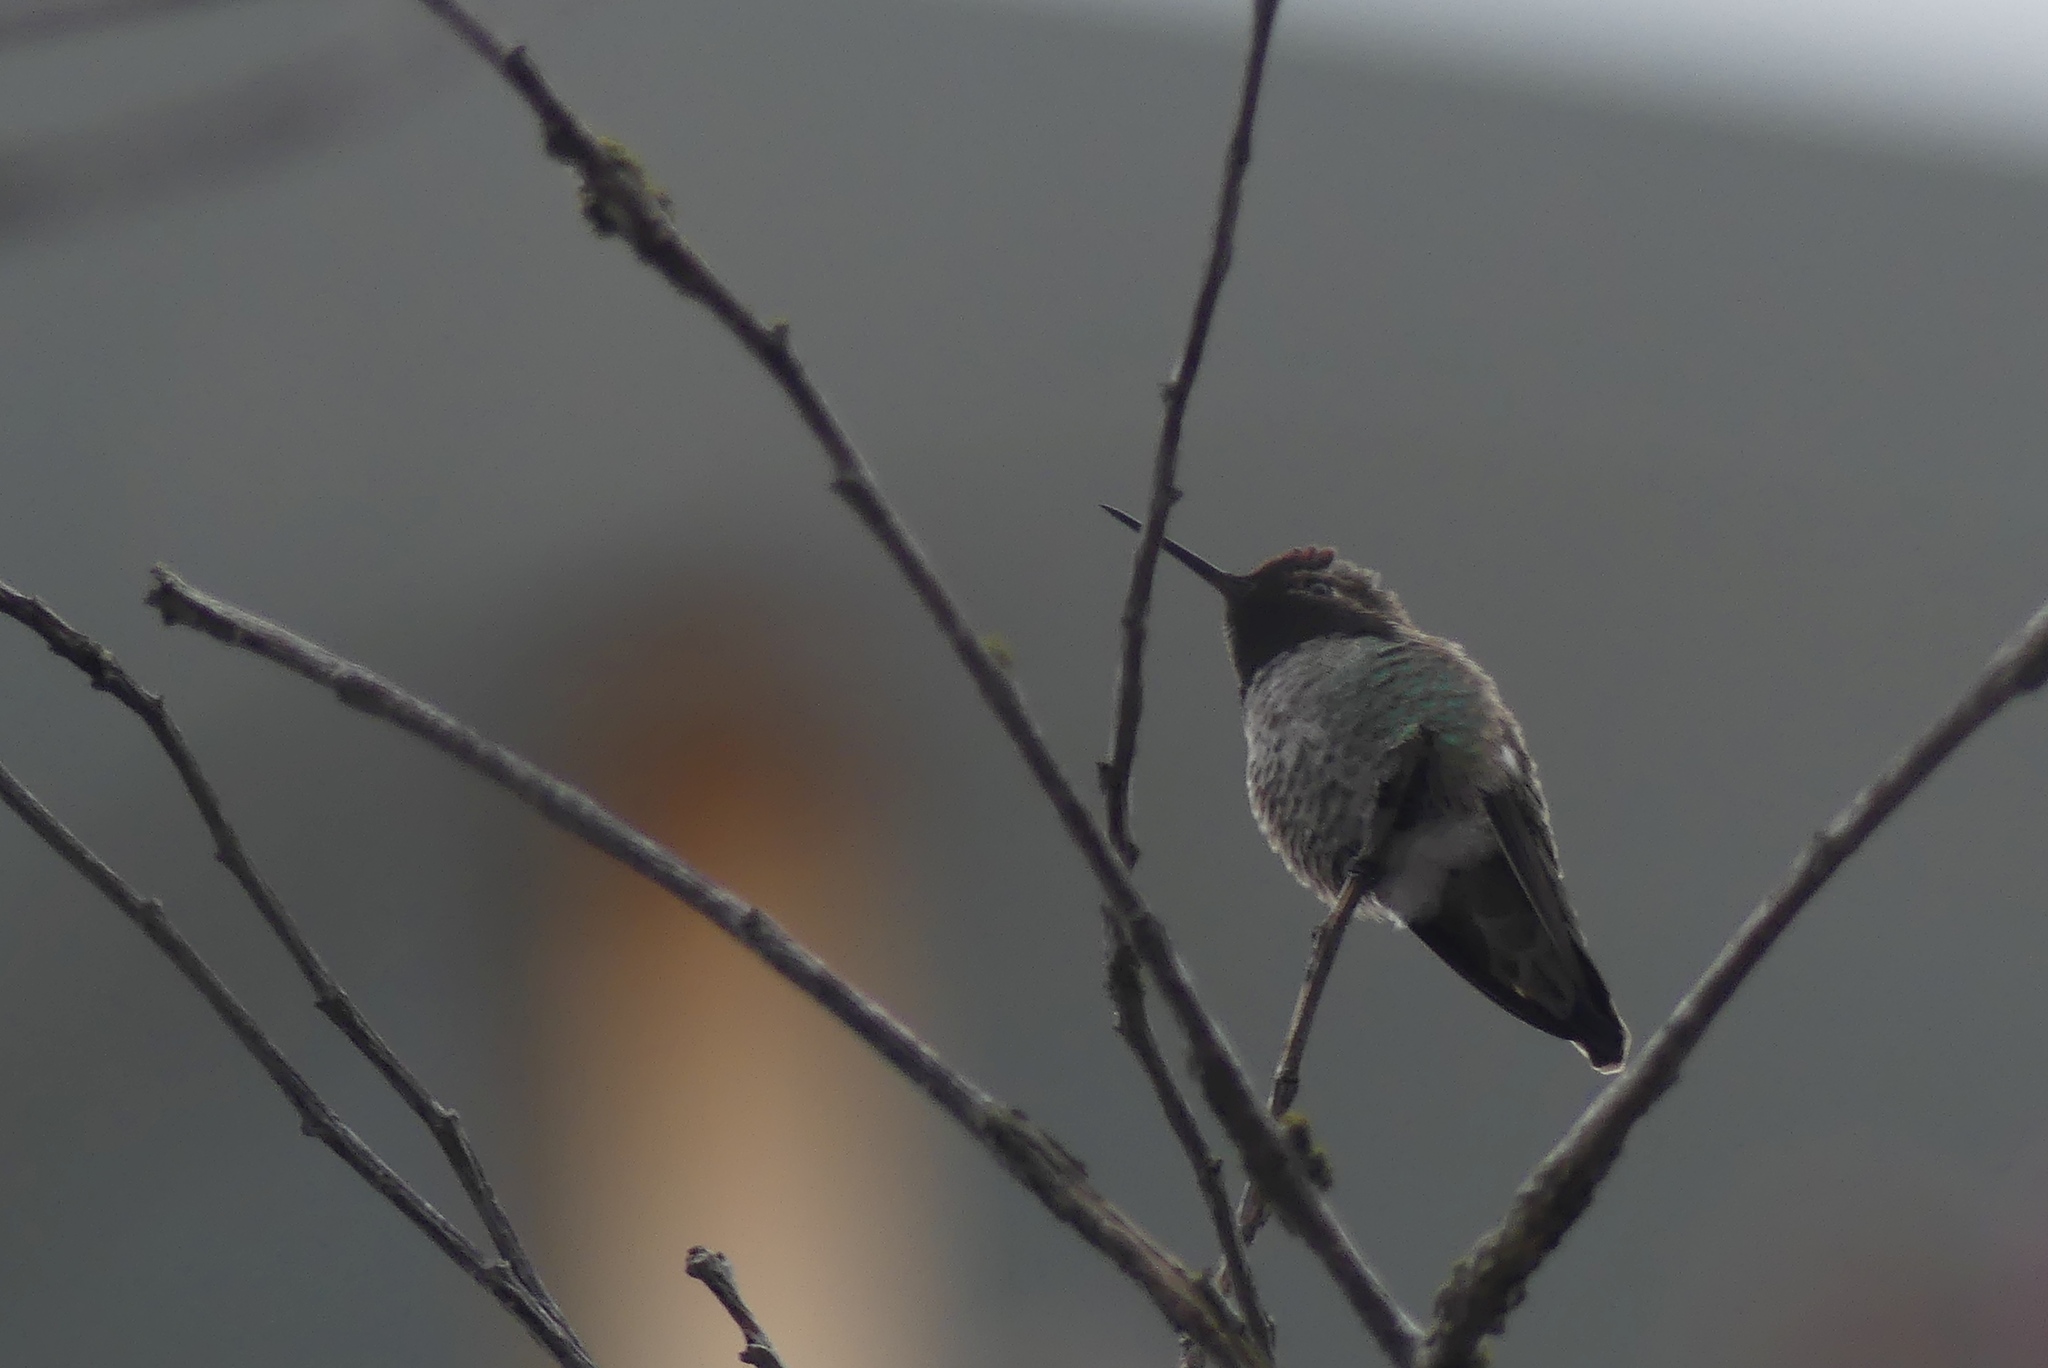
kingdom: Animalia
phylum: Chordata
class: Aves
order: Apodiformes
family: Trochilidae
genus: Calypte
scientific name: Calypte anna
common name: Anna's hummingbird
